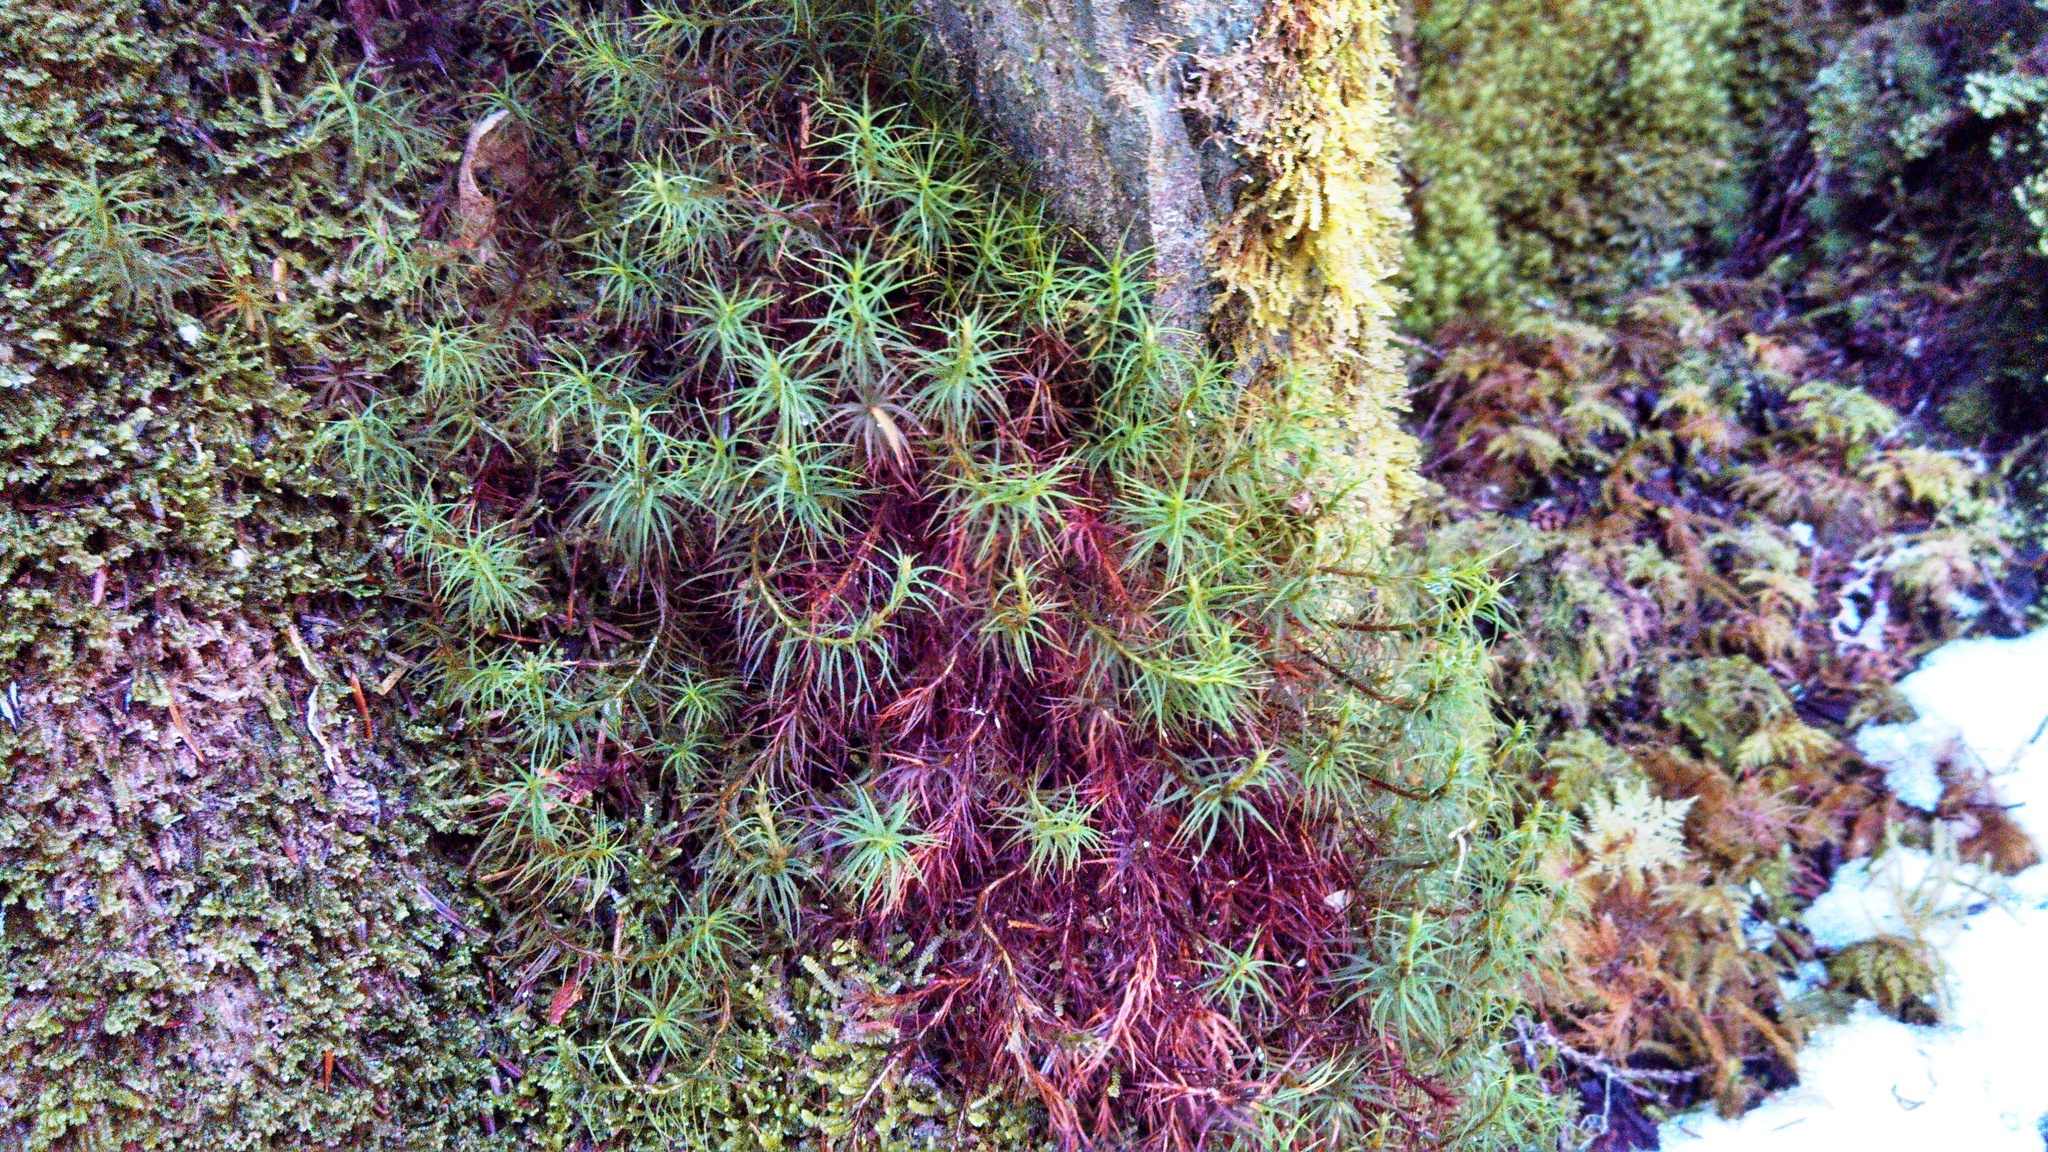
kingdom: Plantae
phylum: Bryophyta
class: Polytrichopsida
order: Polytrichales
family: Polytrichaceae
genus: Polytrichum
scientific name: Polytrichum juniperinum
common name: Juniper haircap moss
